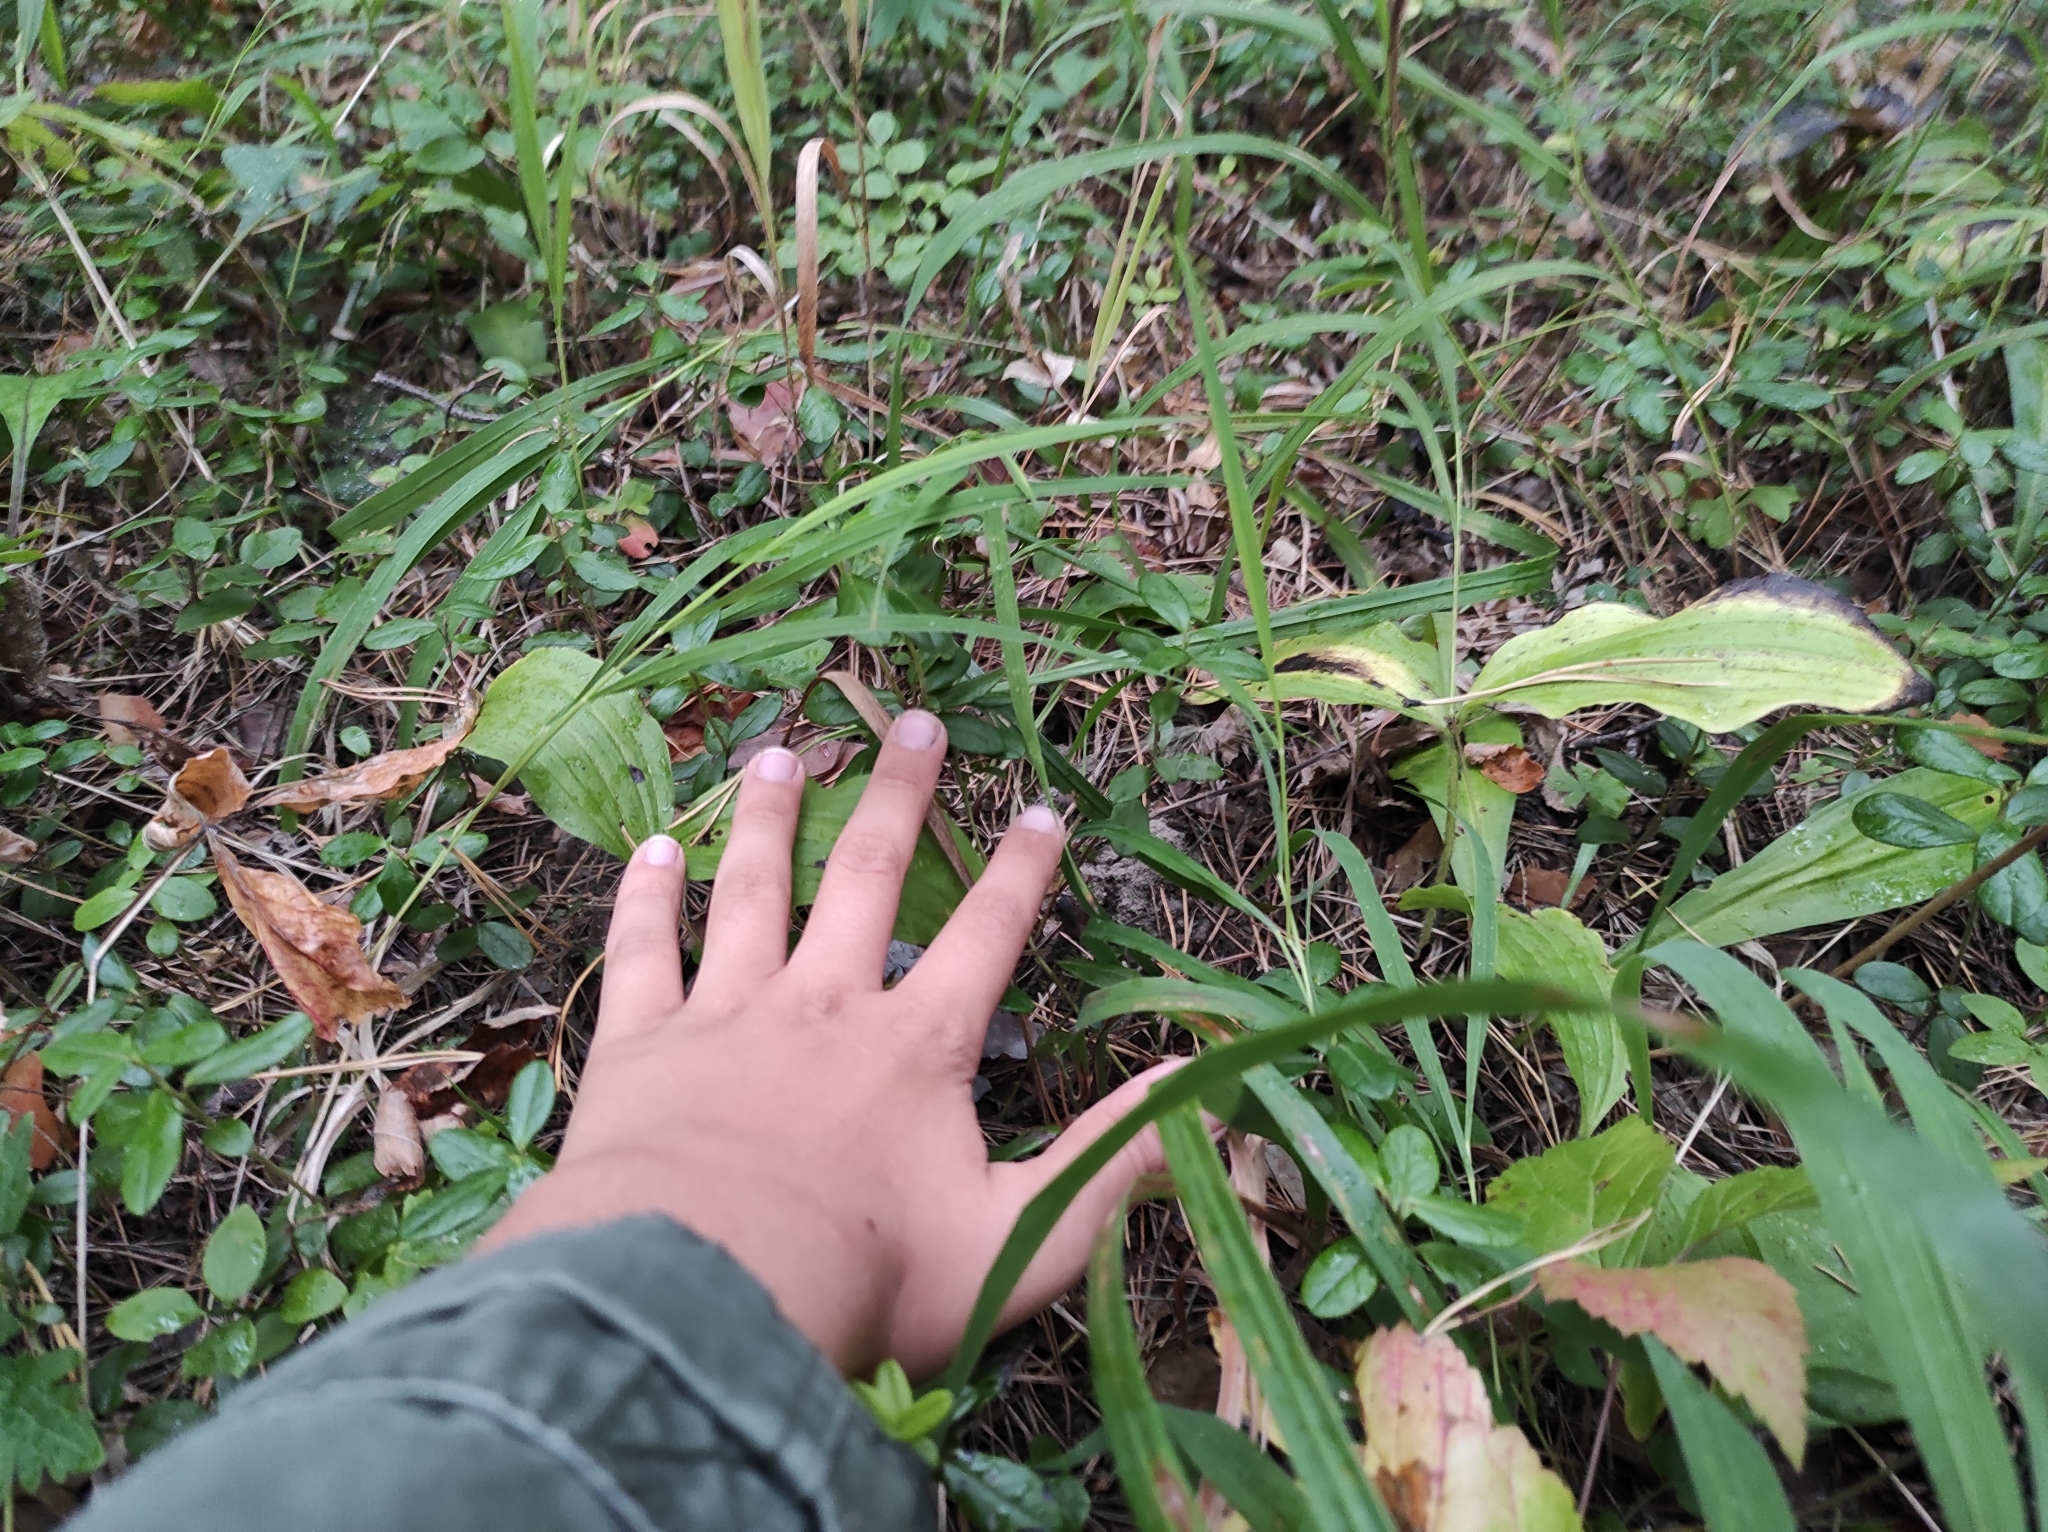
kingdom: Plantae
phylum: Tracheophyta
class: Liliopsida
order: Asparagales
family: Orchidaceae
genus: Cypripedium
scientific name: Cypripedium guttatum
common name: Pink lady slipper
